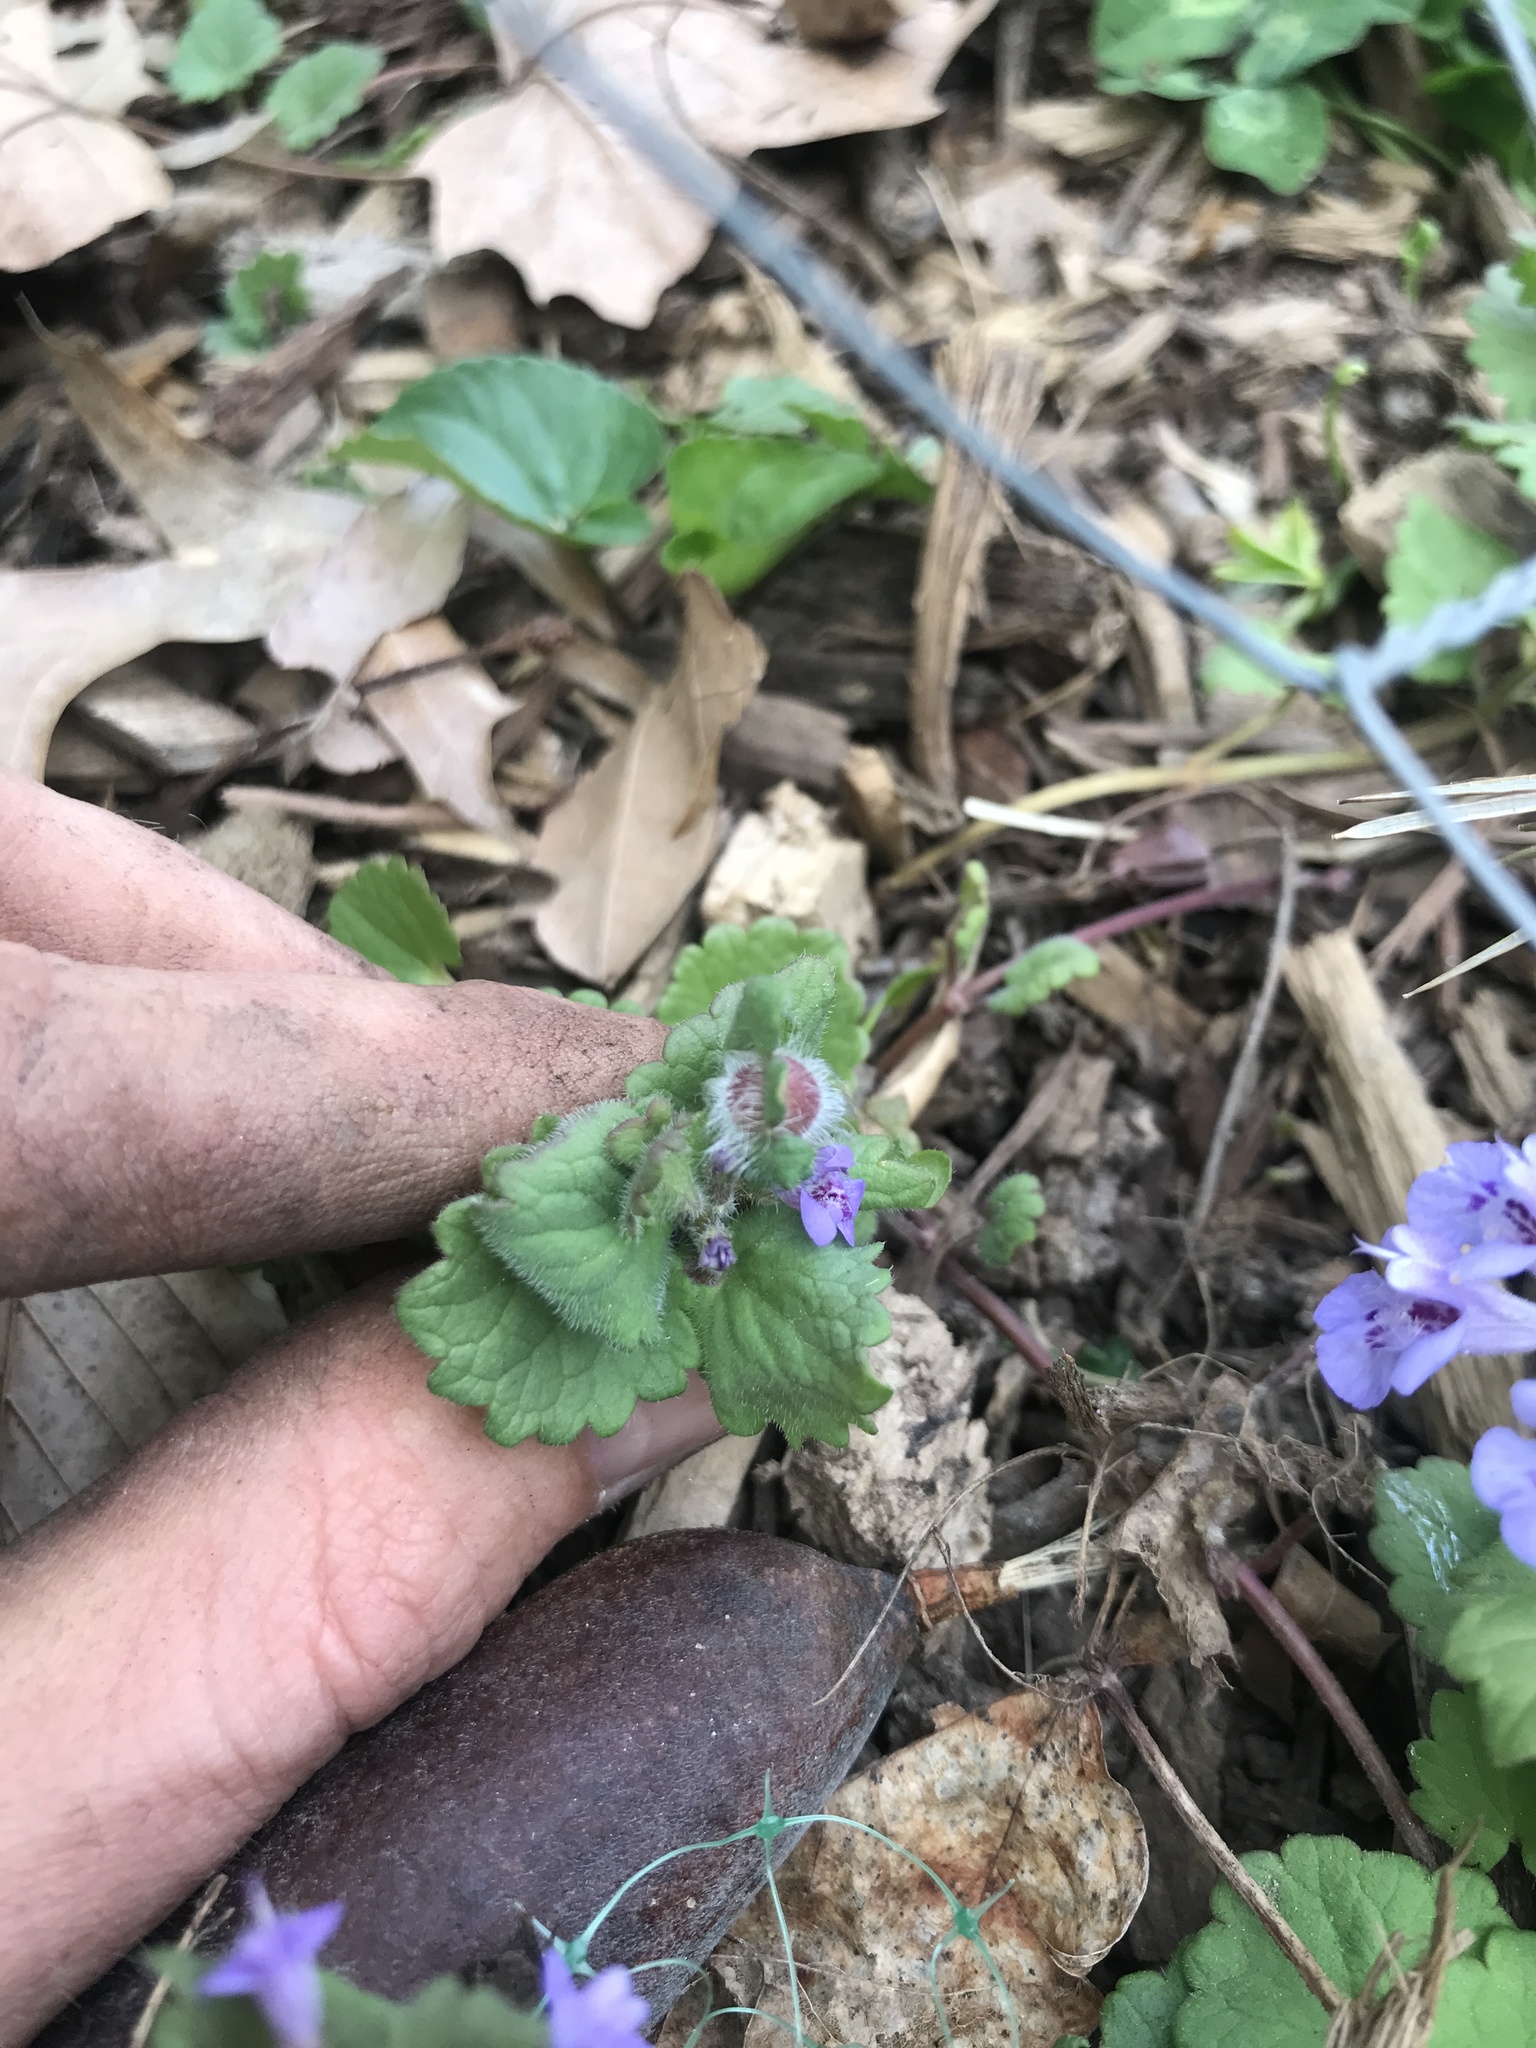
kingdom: Animalia
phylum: Arthropoda
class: Insecta
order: Hymenoptera
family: Cynipidae
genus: Liposthenes
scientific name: Liposthenes glechomae
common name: Gall wasp
